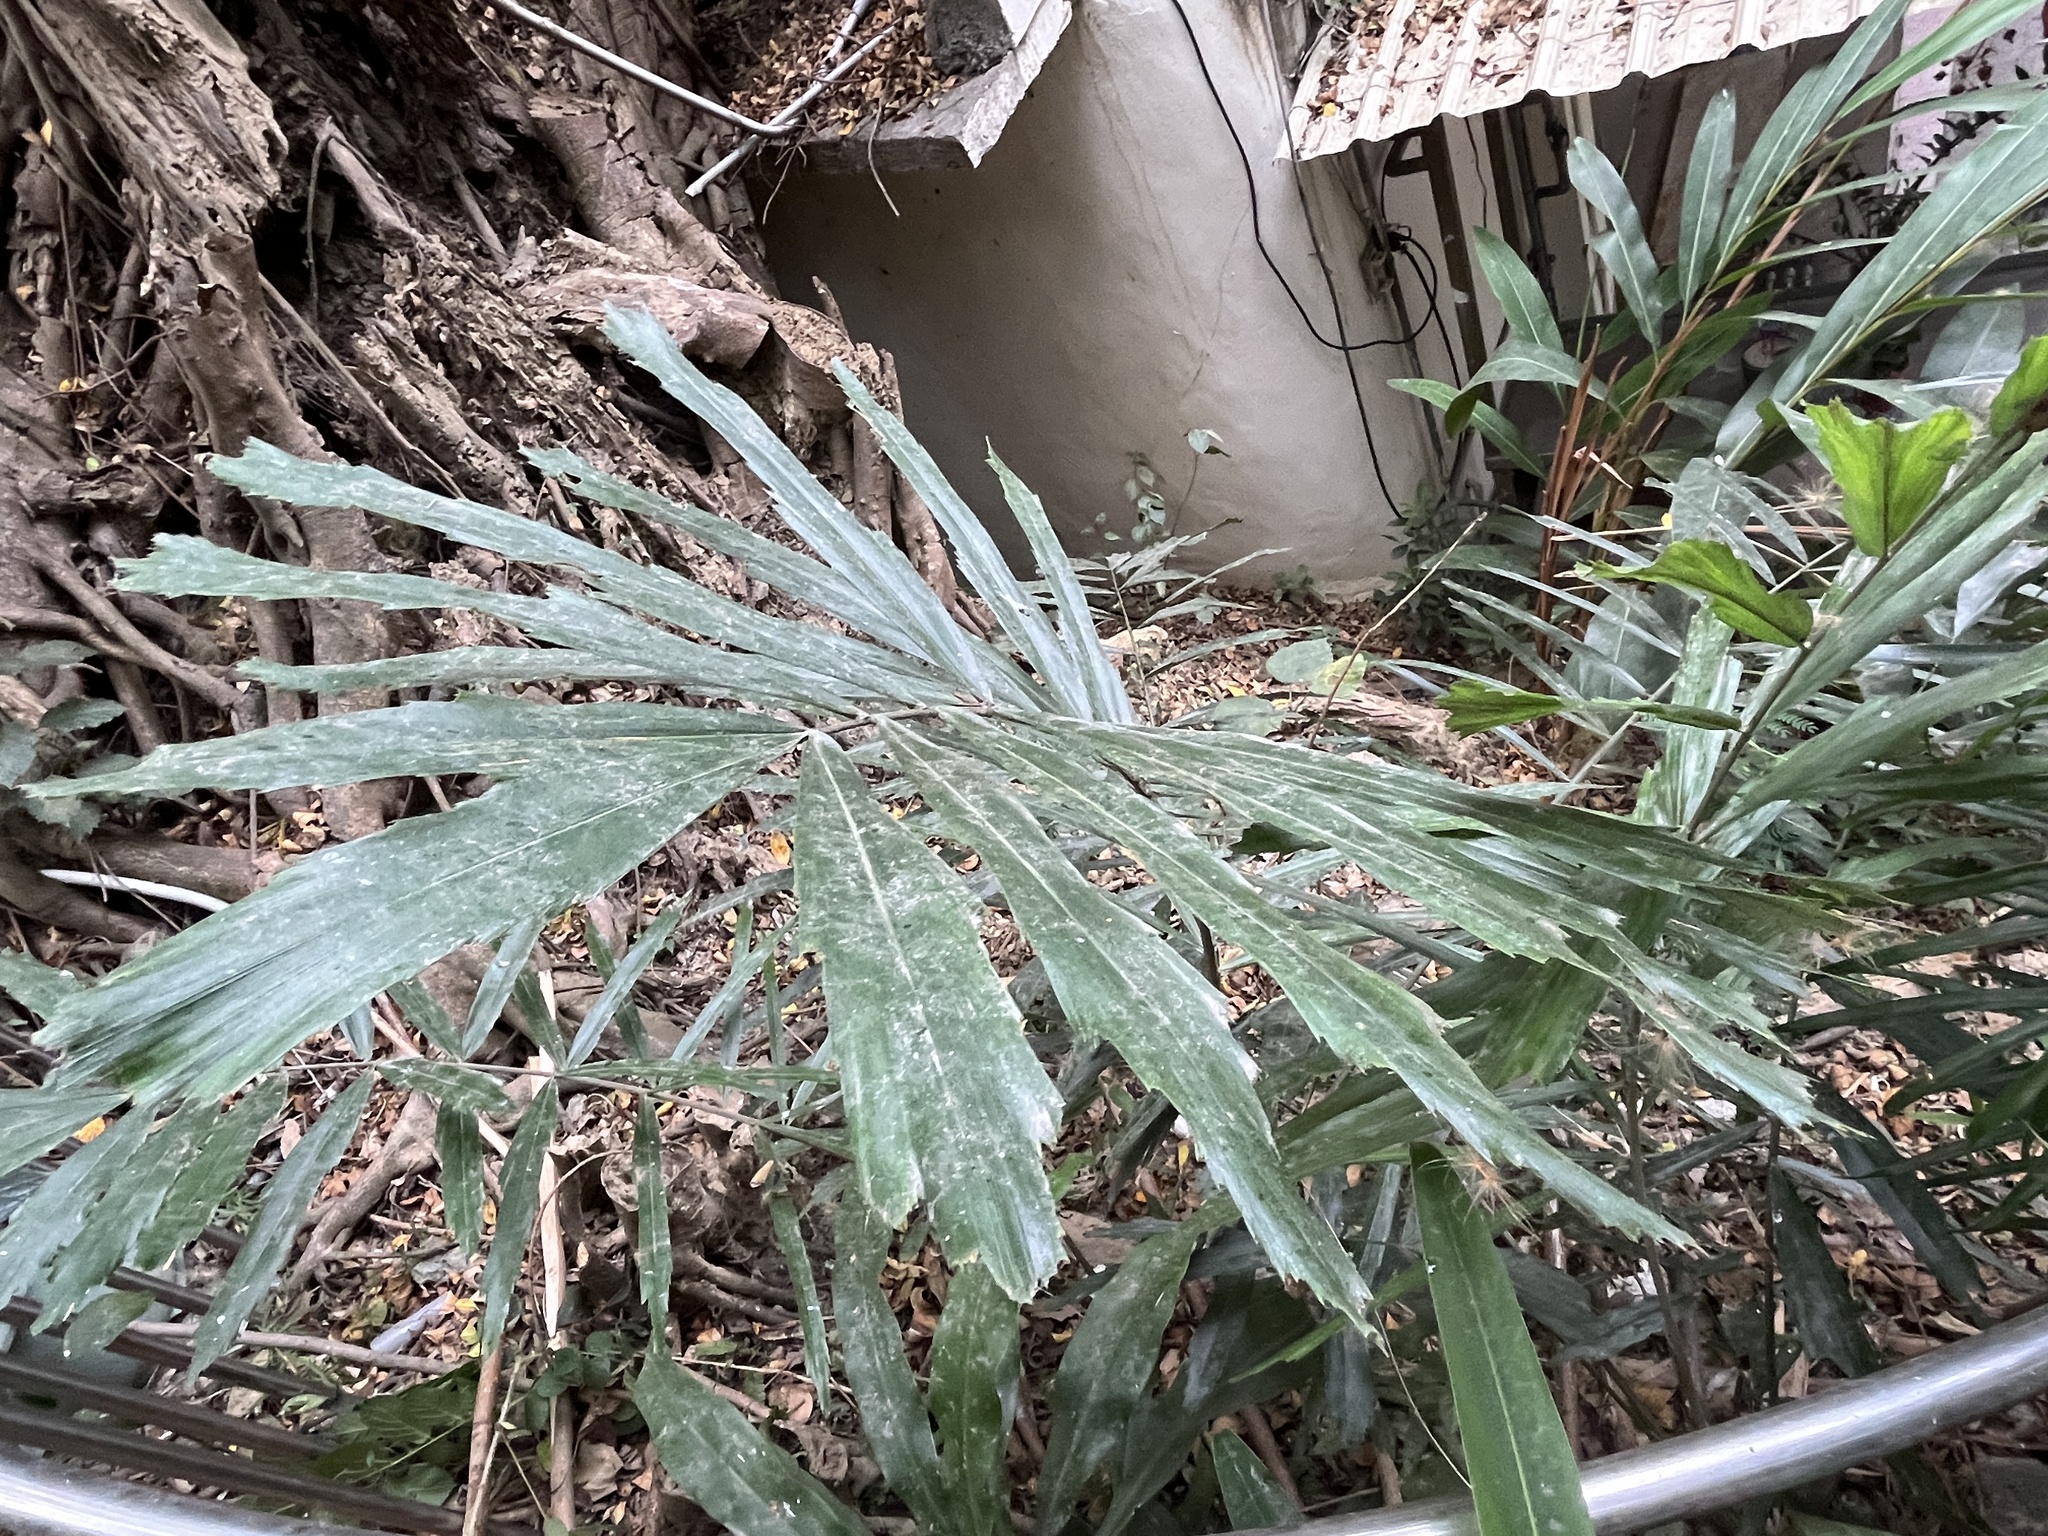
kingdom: Plantae
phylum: Tracheophyta
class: Liliopsida
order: Arecales
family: Arecaceae
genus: Arenga
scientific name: Arenga engleri
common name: Formosan sugar palm
